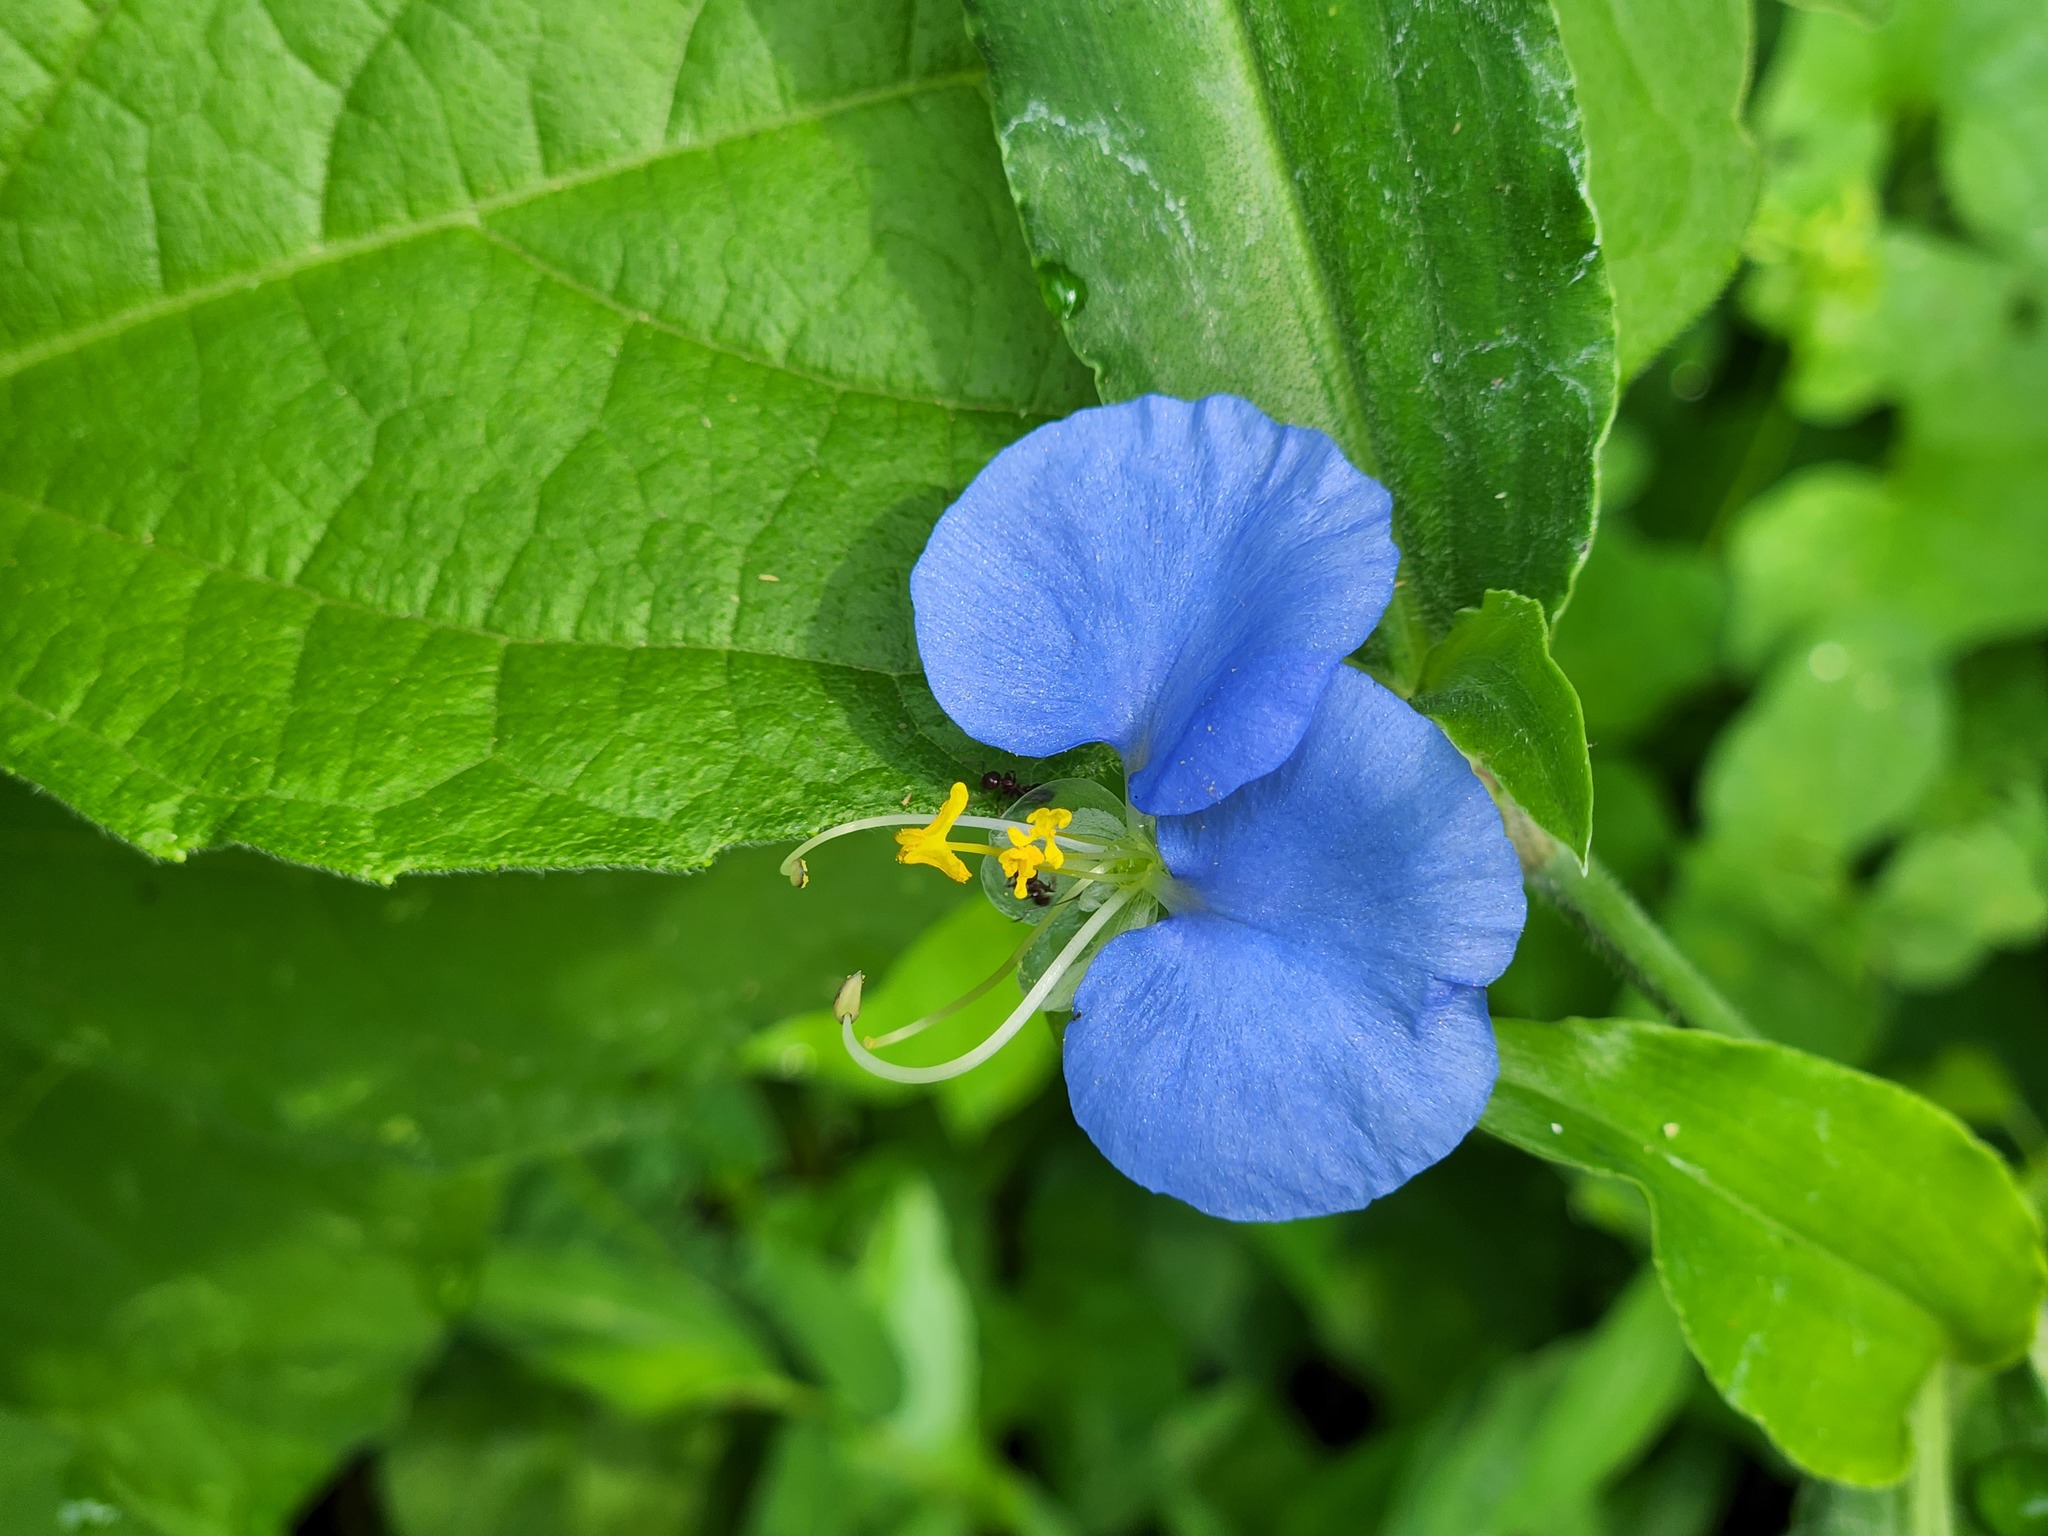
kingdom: Plantae
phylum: Tracheophyta
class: Liliopsida
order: Commelinales
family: Commelinaceae
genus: Commelina
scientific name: Commelina erecta
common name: Blousel blommetjie
